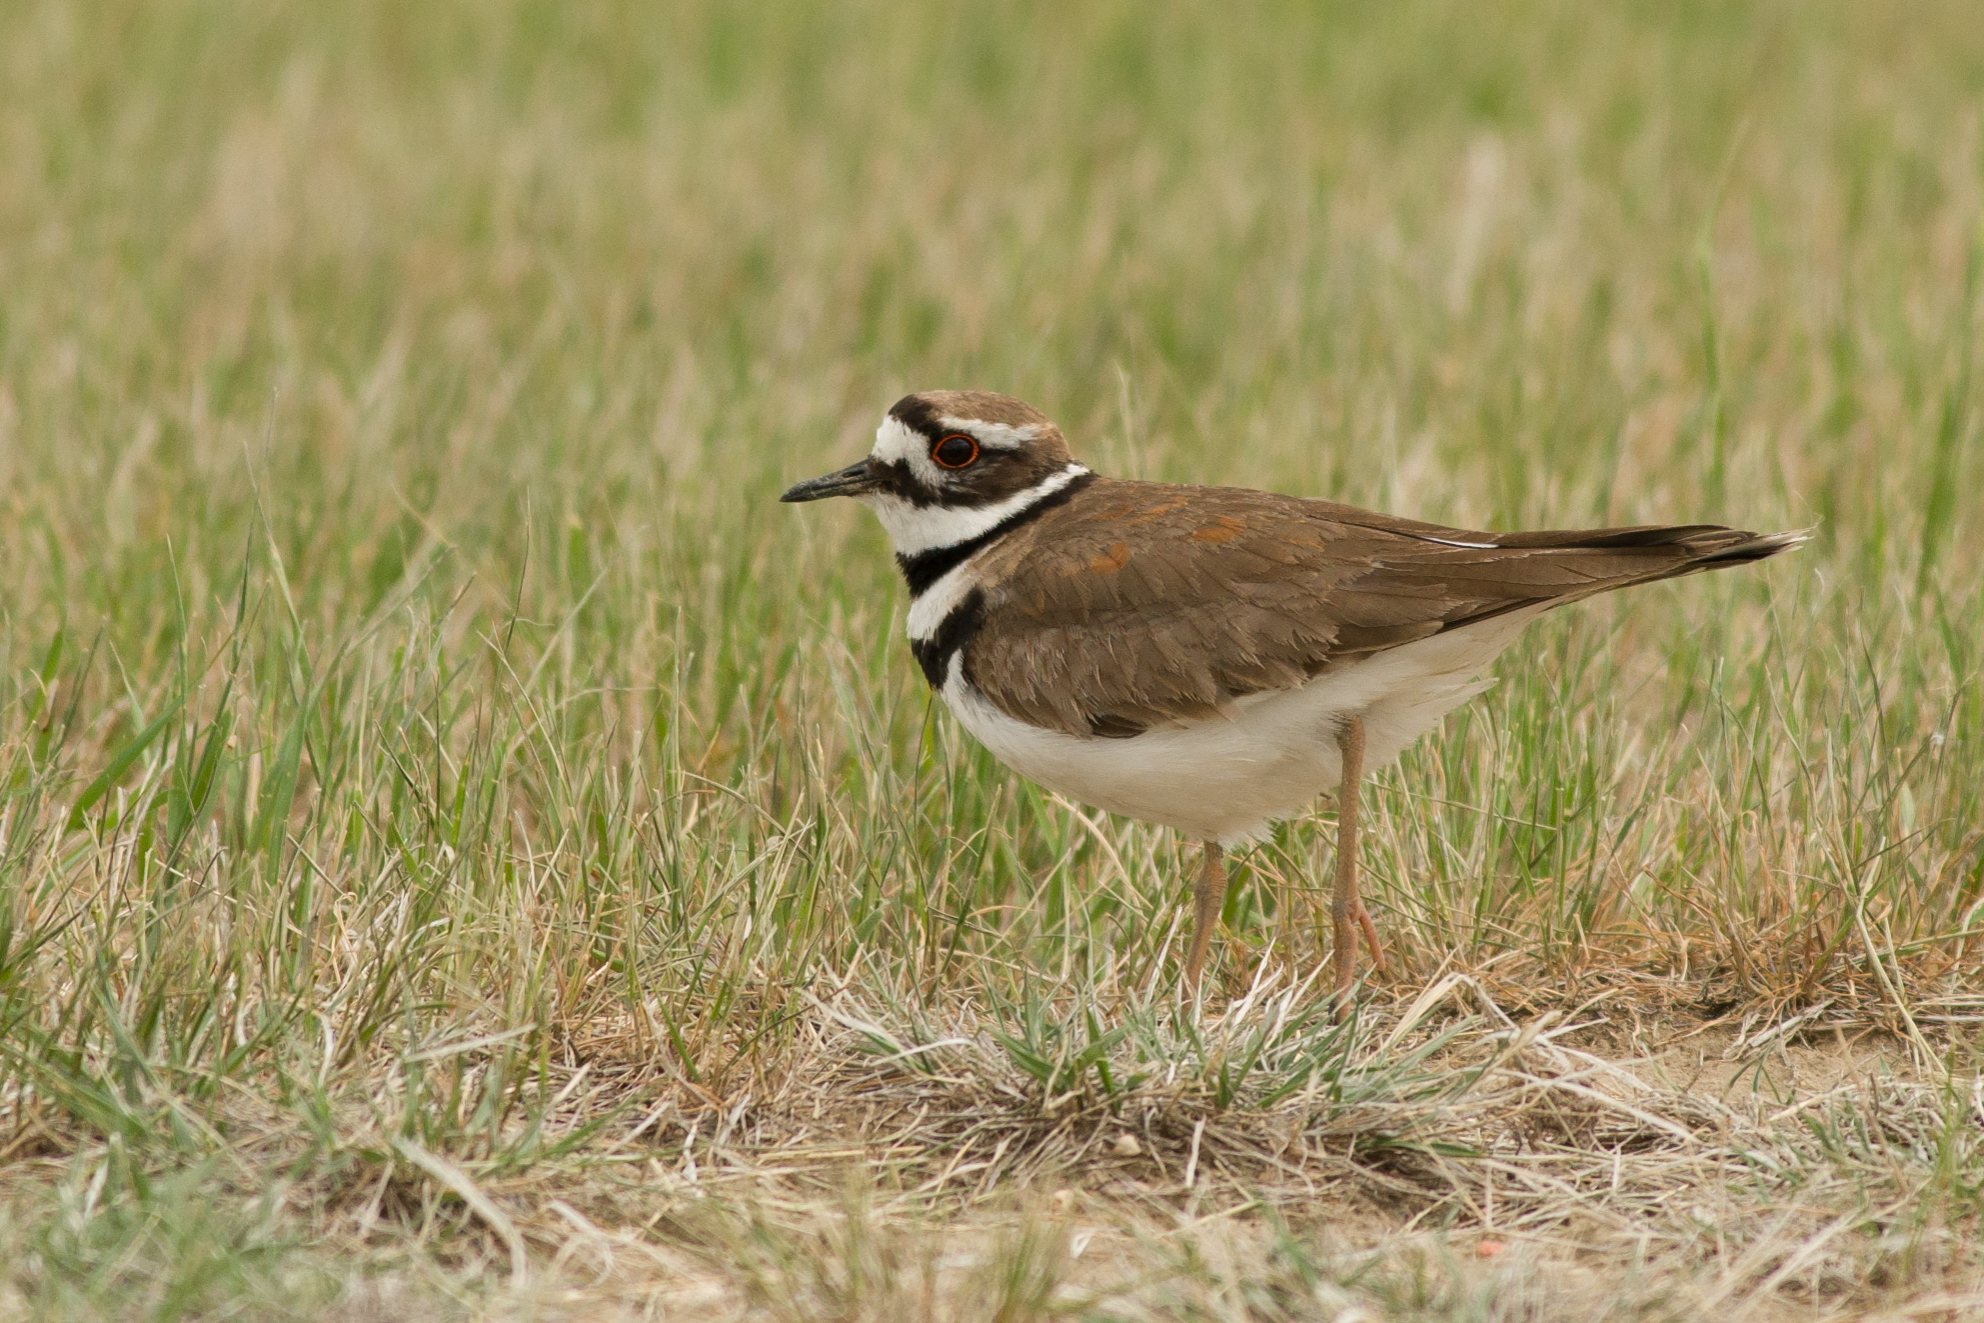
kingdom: Animalia
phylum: Chordata
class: Aves
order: Charadriiformes
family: Charadriidae
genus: Charadrius
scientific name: Charadrius vociferus
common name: Killdeer
